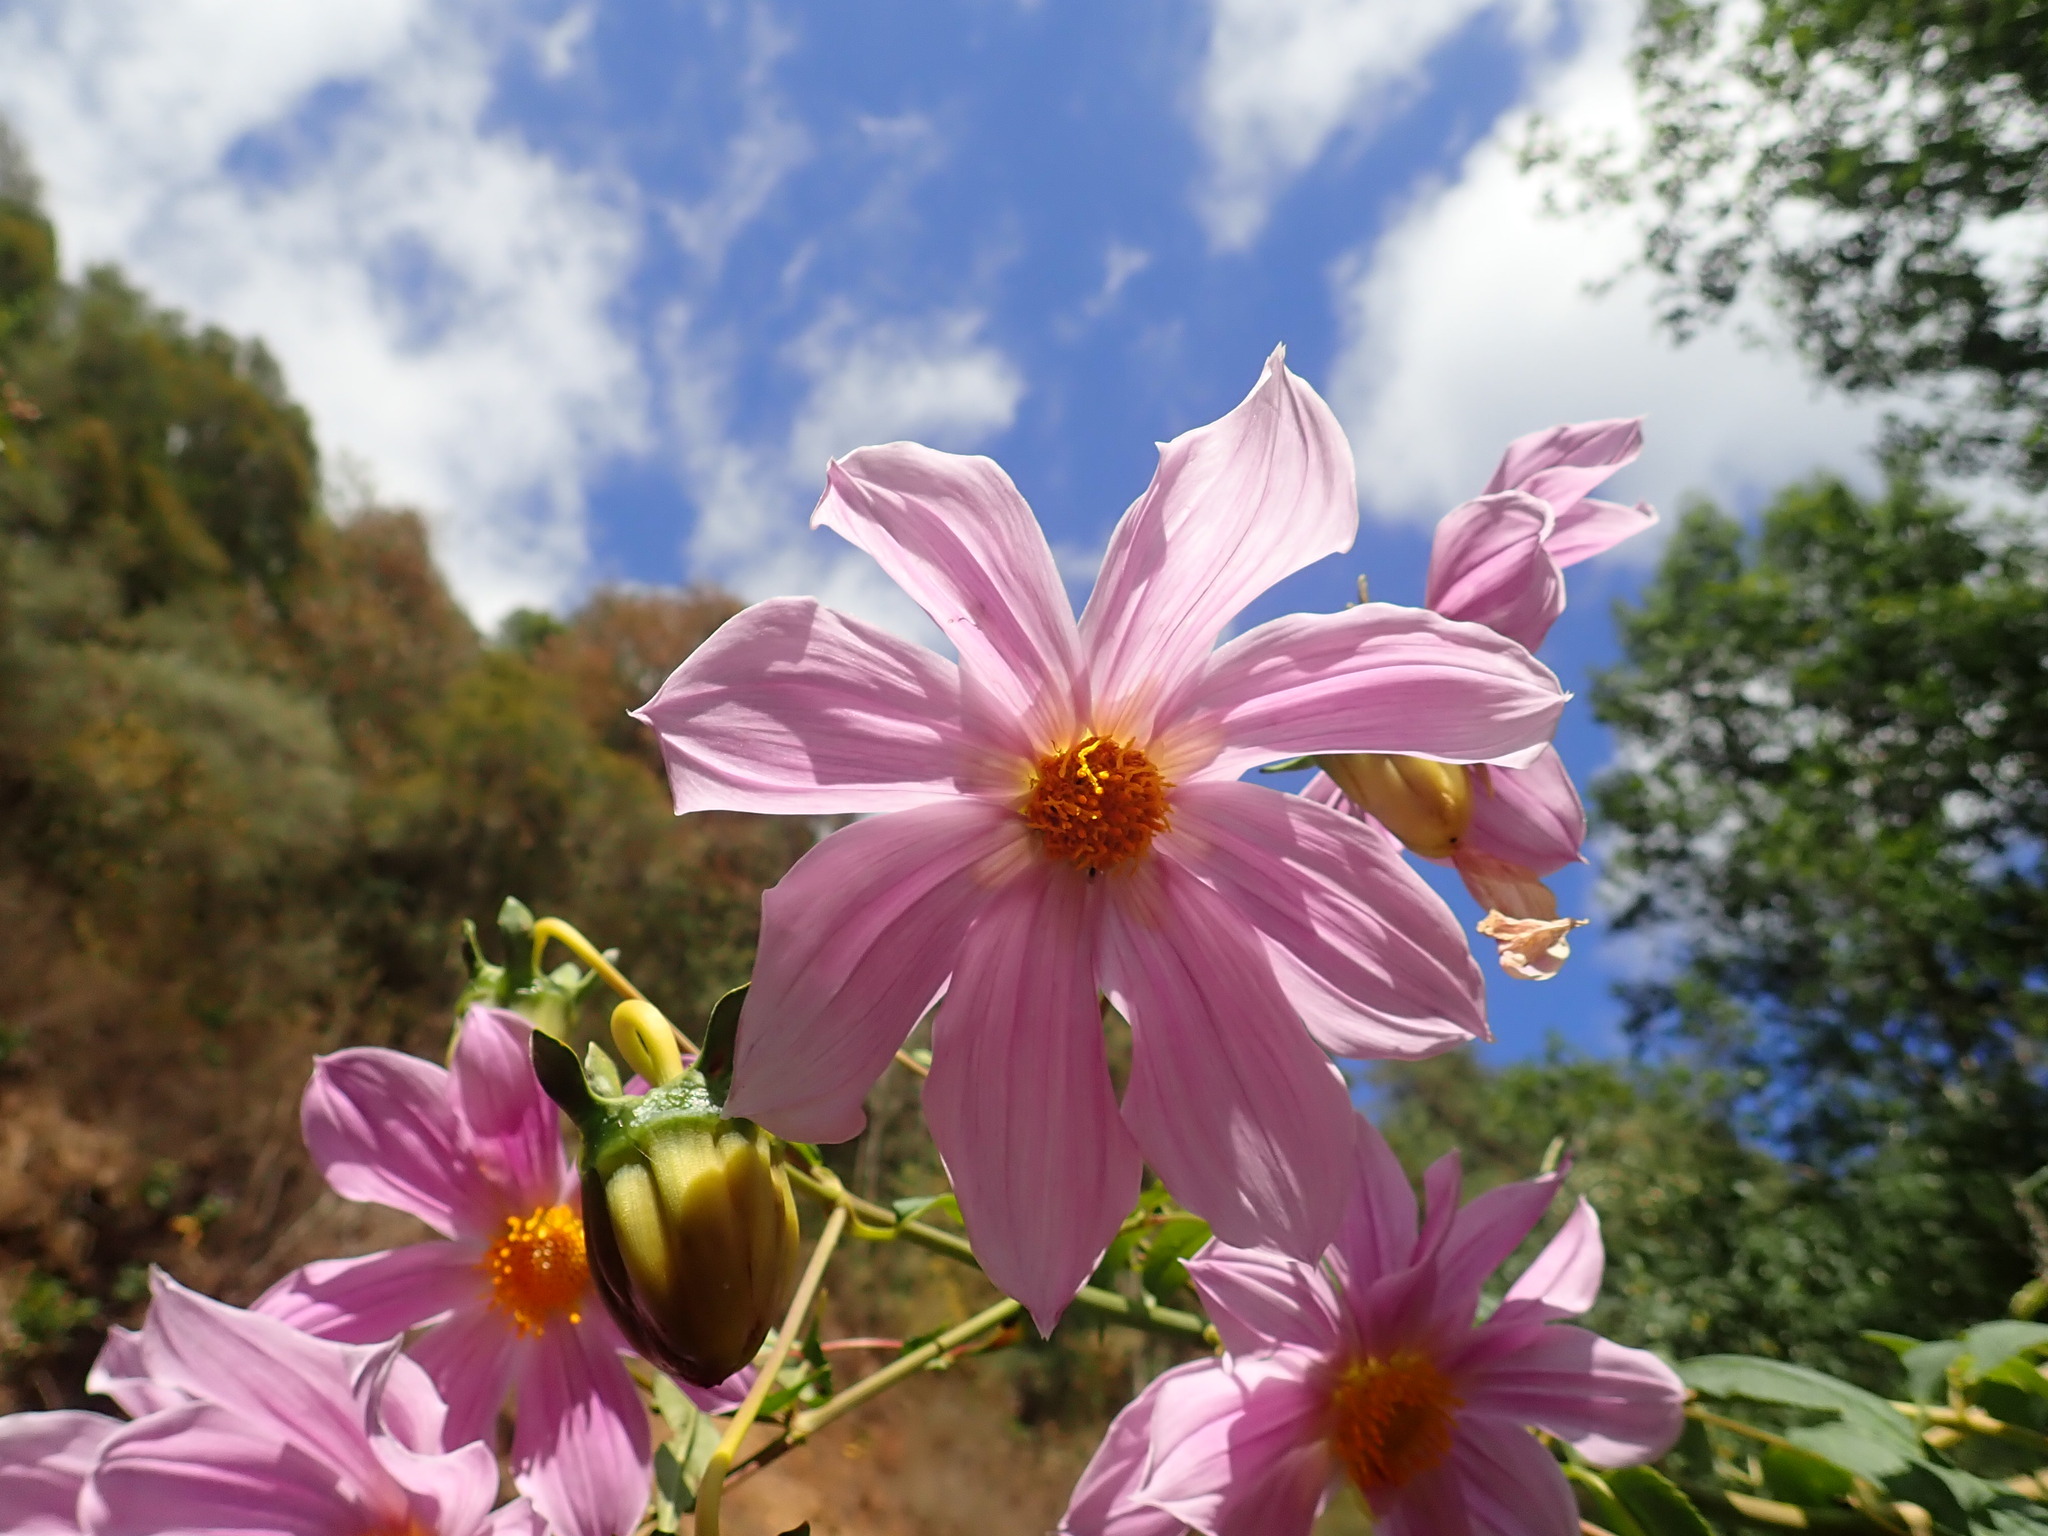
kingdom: Plantae
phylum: Tracheophyta
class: Magnoliopsida
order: Asterales
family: Asteraceae
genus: Dahlia
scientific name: Dahlia tenuicaulis
